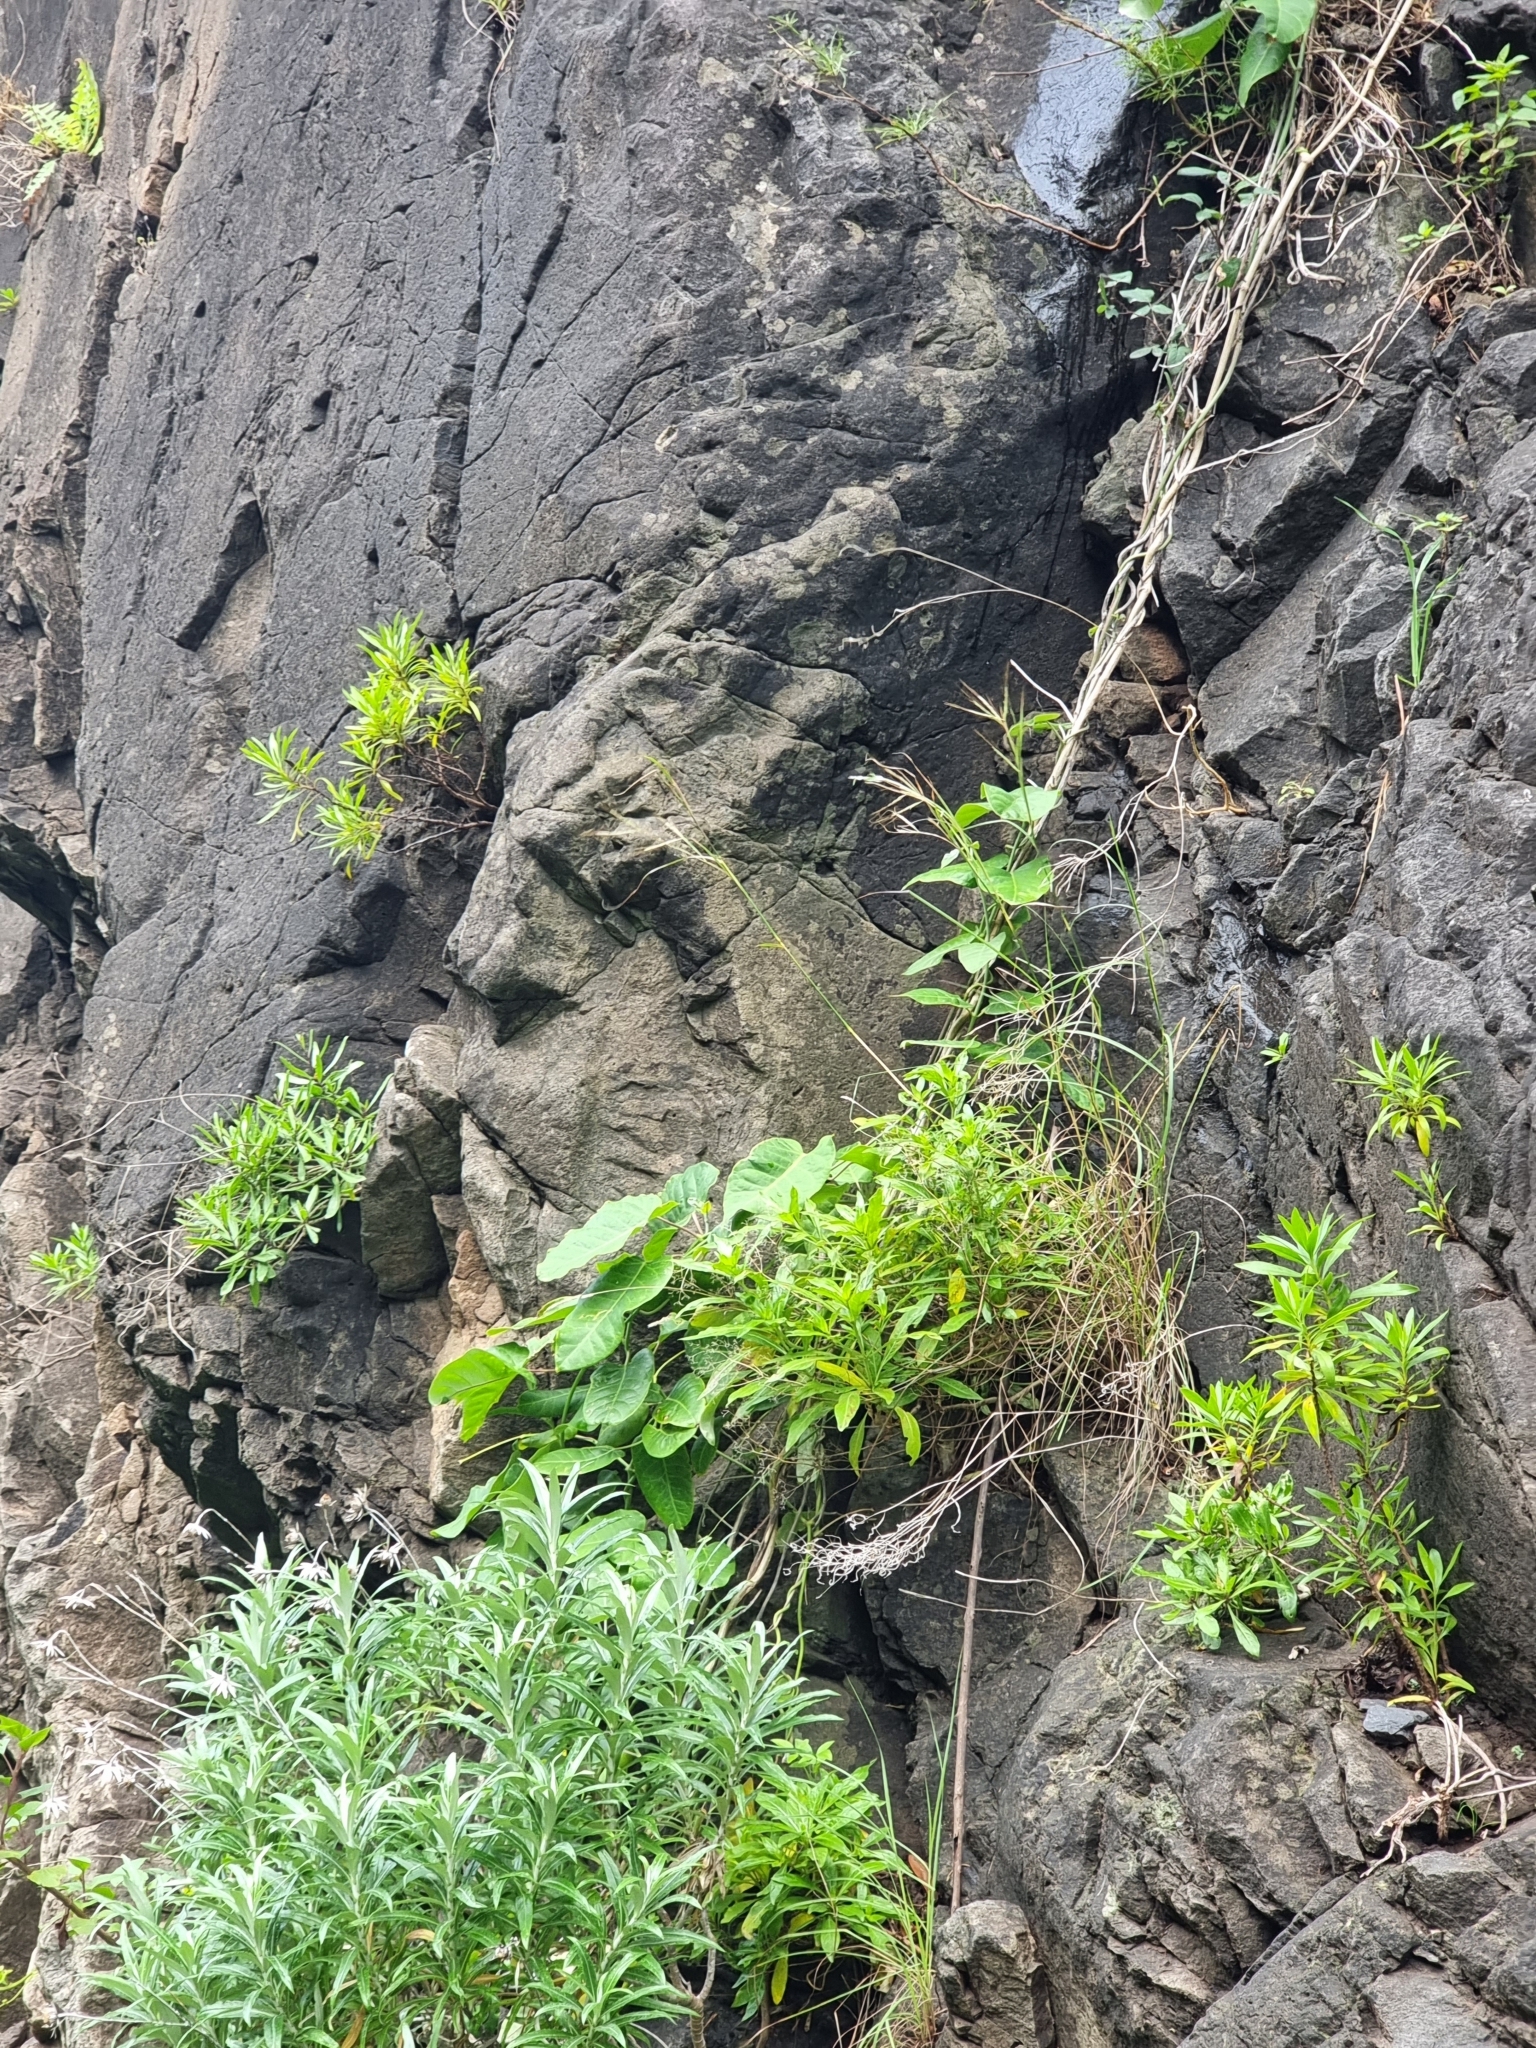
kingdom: Plantae
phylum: Tracheophyta
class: Magnoliopsida
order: Gentianales
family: Apocynaceae
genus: Araujia
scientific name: Araujia sericifera
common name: White bladderflower
